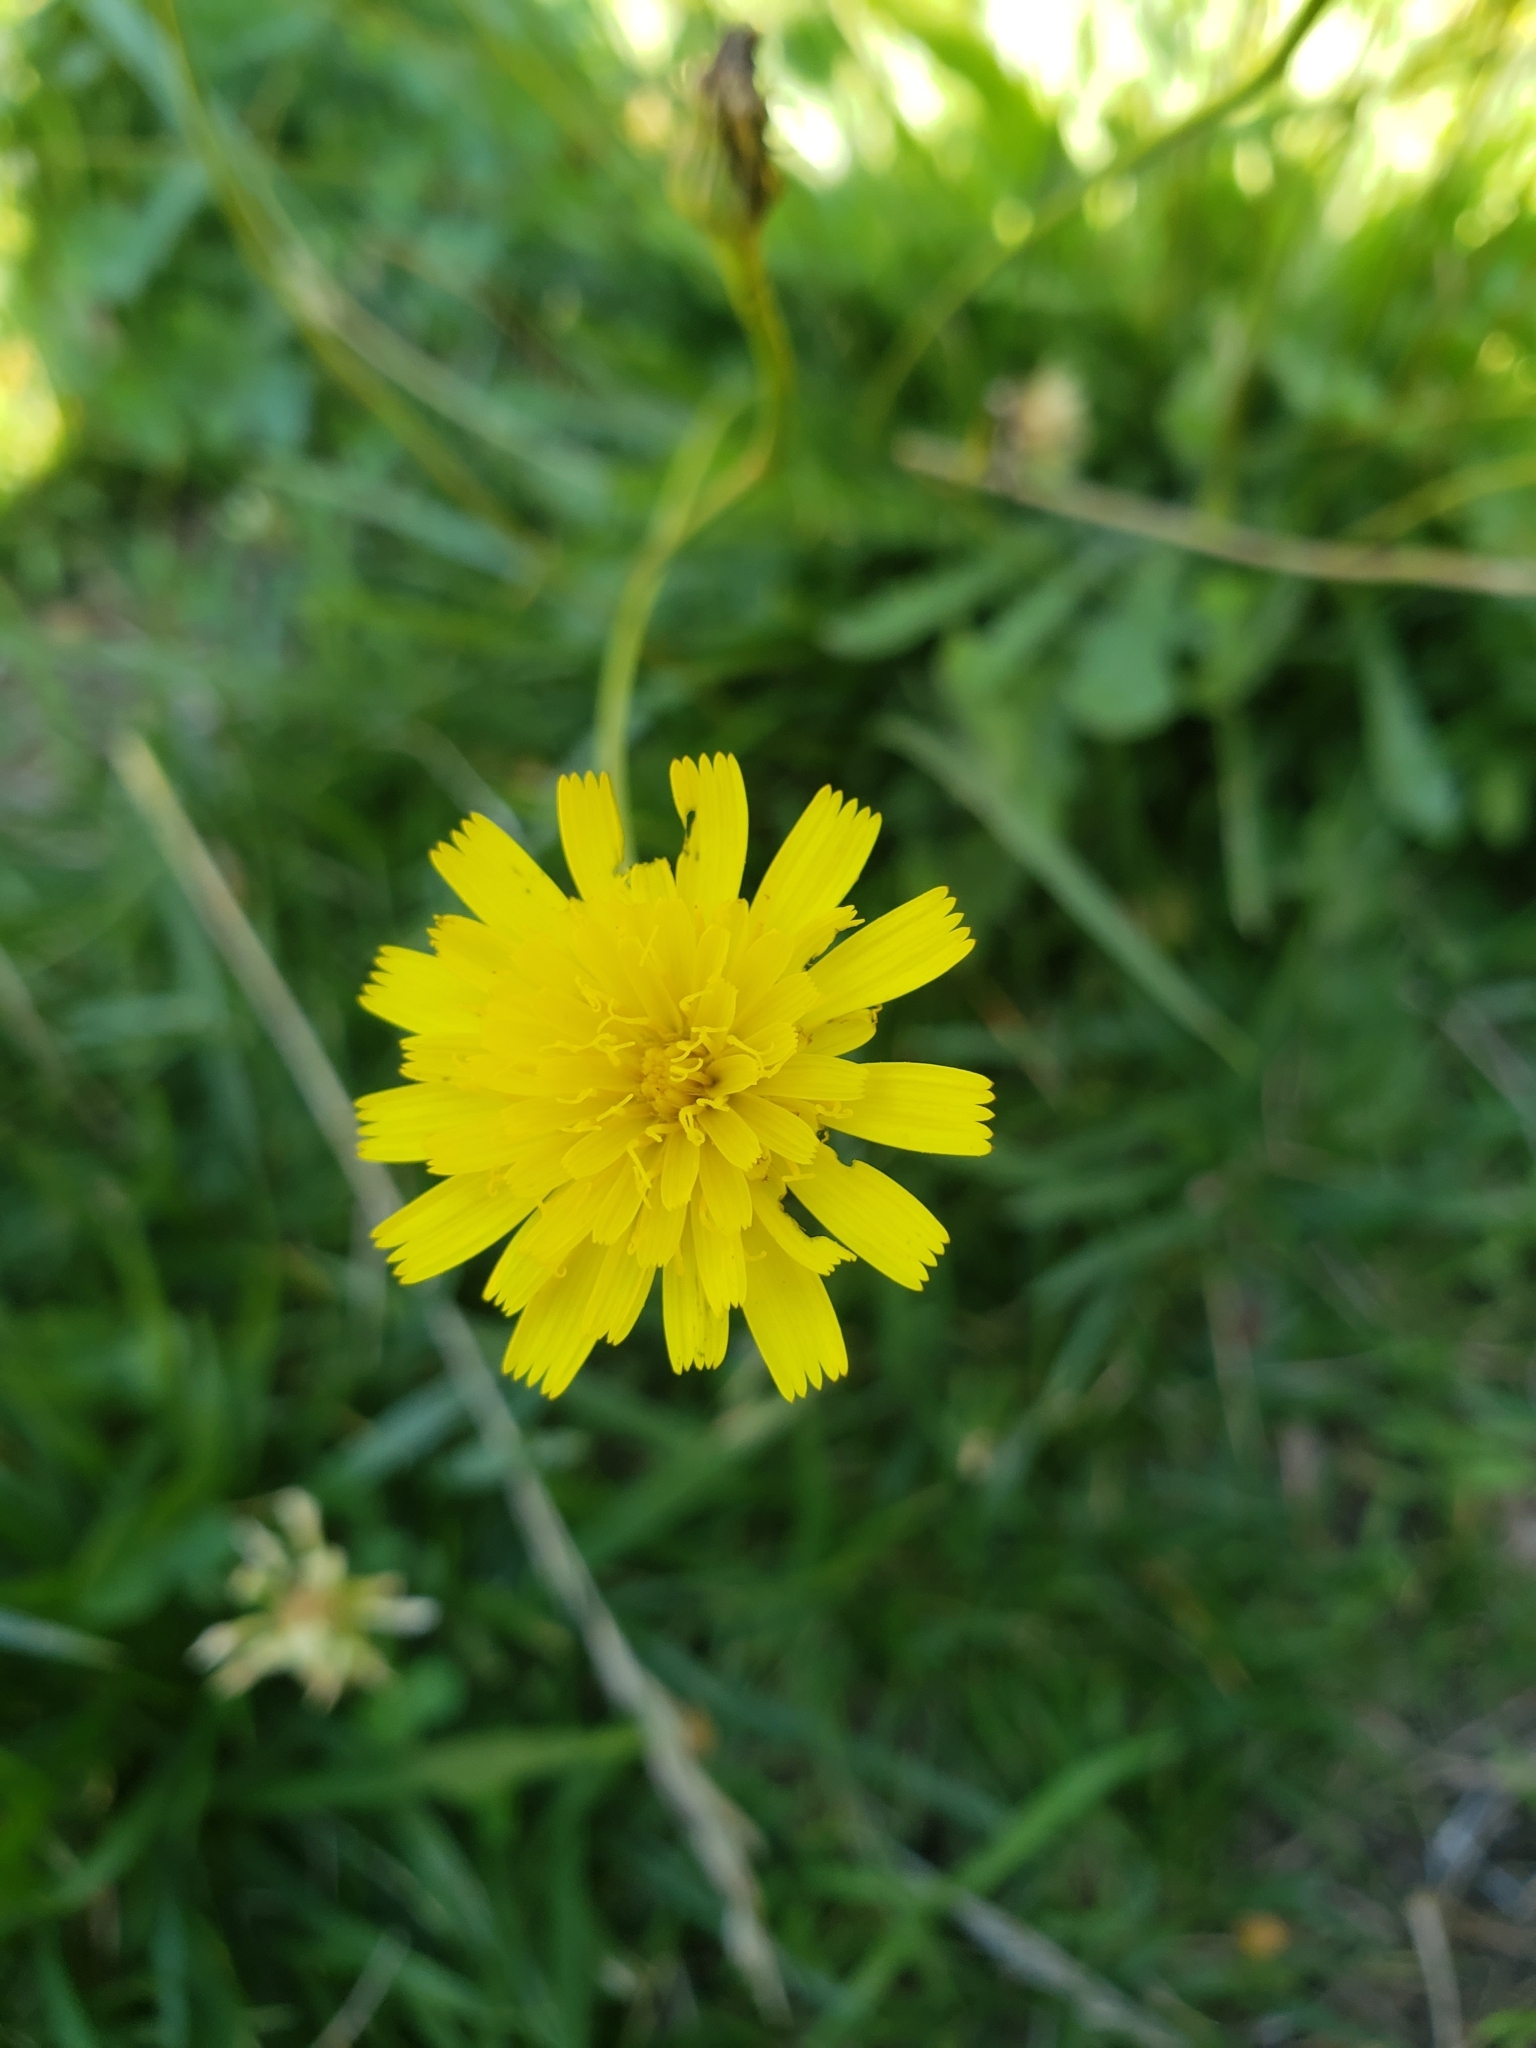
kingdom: Plantae
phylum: Tracheophyta
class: Magnoliopsida
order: Asterales
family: Asteraceae
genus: Hypochaeris
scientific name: Hypochaeris radicata
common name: Flatweed
